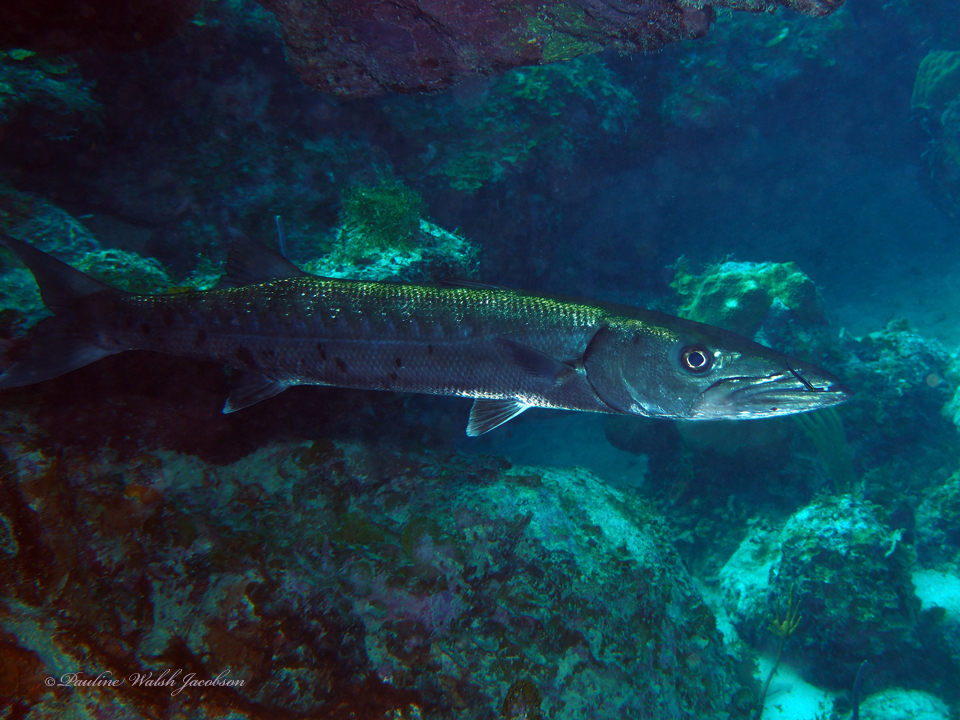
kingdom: Animalia
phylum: Chordata
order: Perciformes
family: Sphyraenidae
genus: Sphyraena
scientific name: Sphyraena barracuda
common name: Great barracuda
